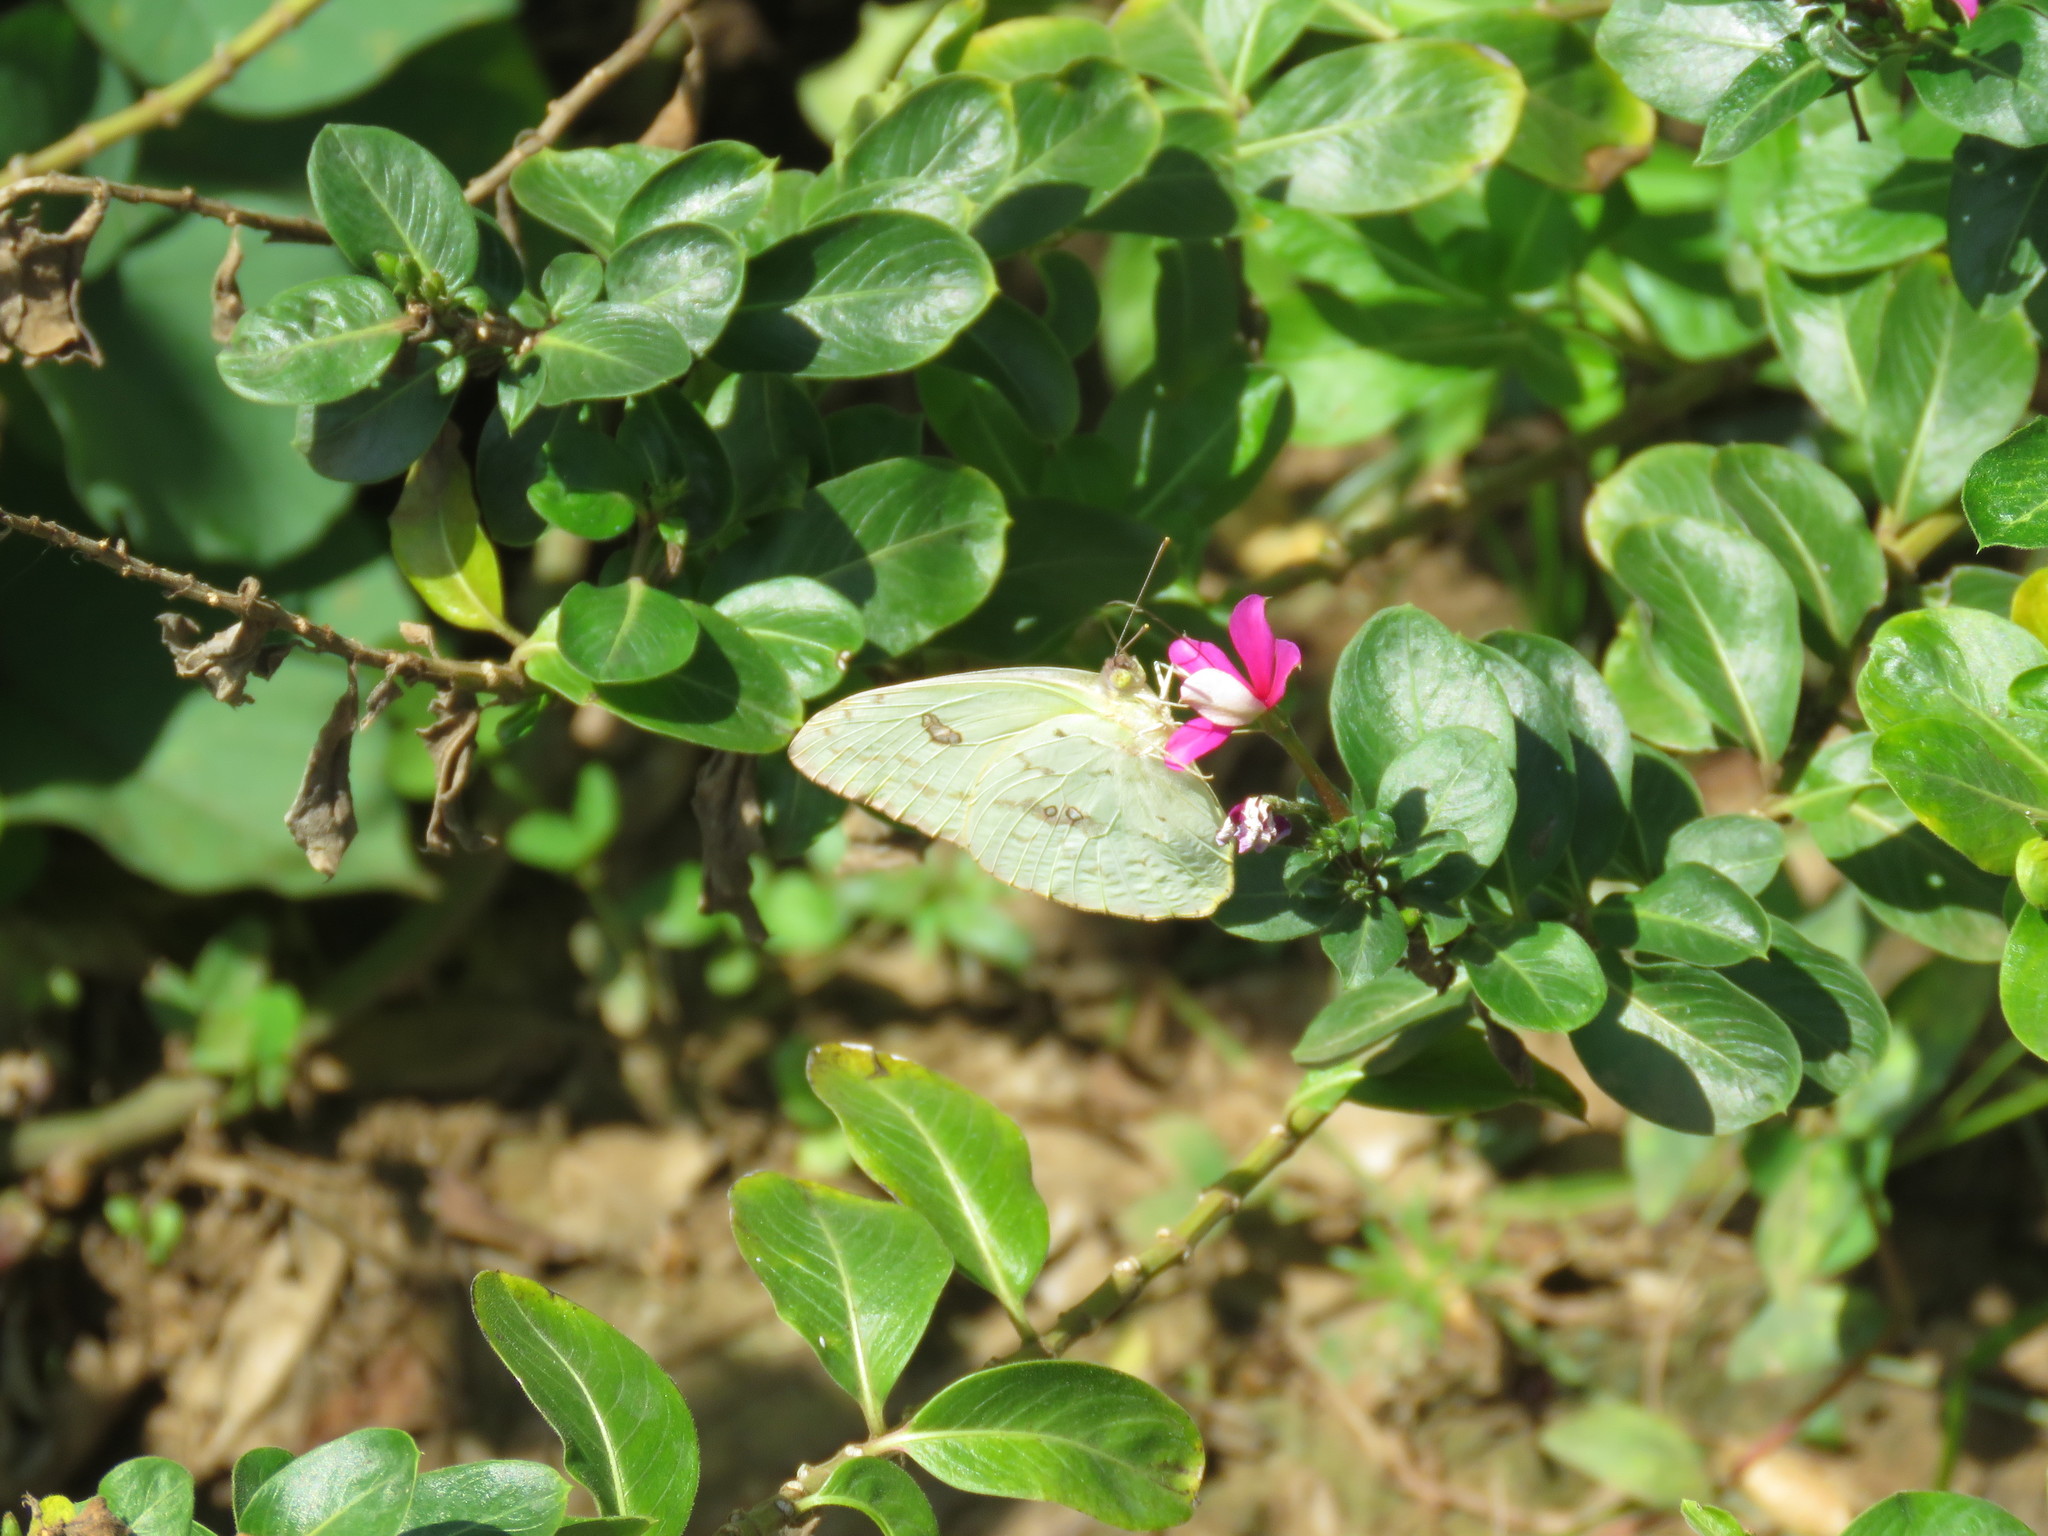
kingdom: Animalia
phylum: Arthropoda
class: Insecta
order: Lepidoptera
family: Pieridae
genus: Phoebis
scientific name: Phoebis marcellina
